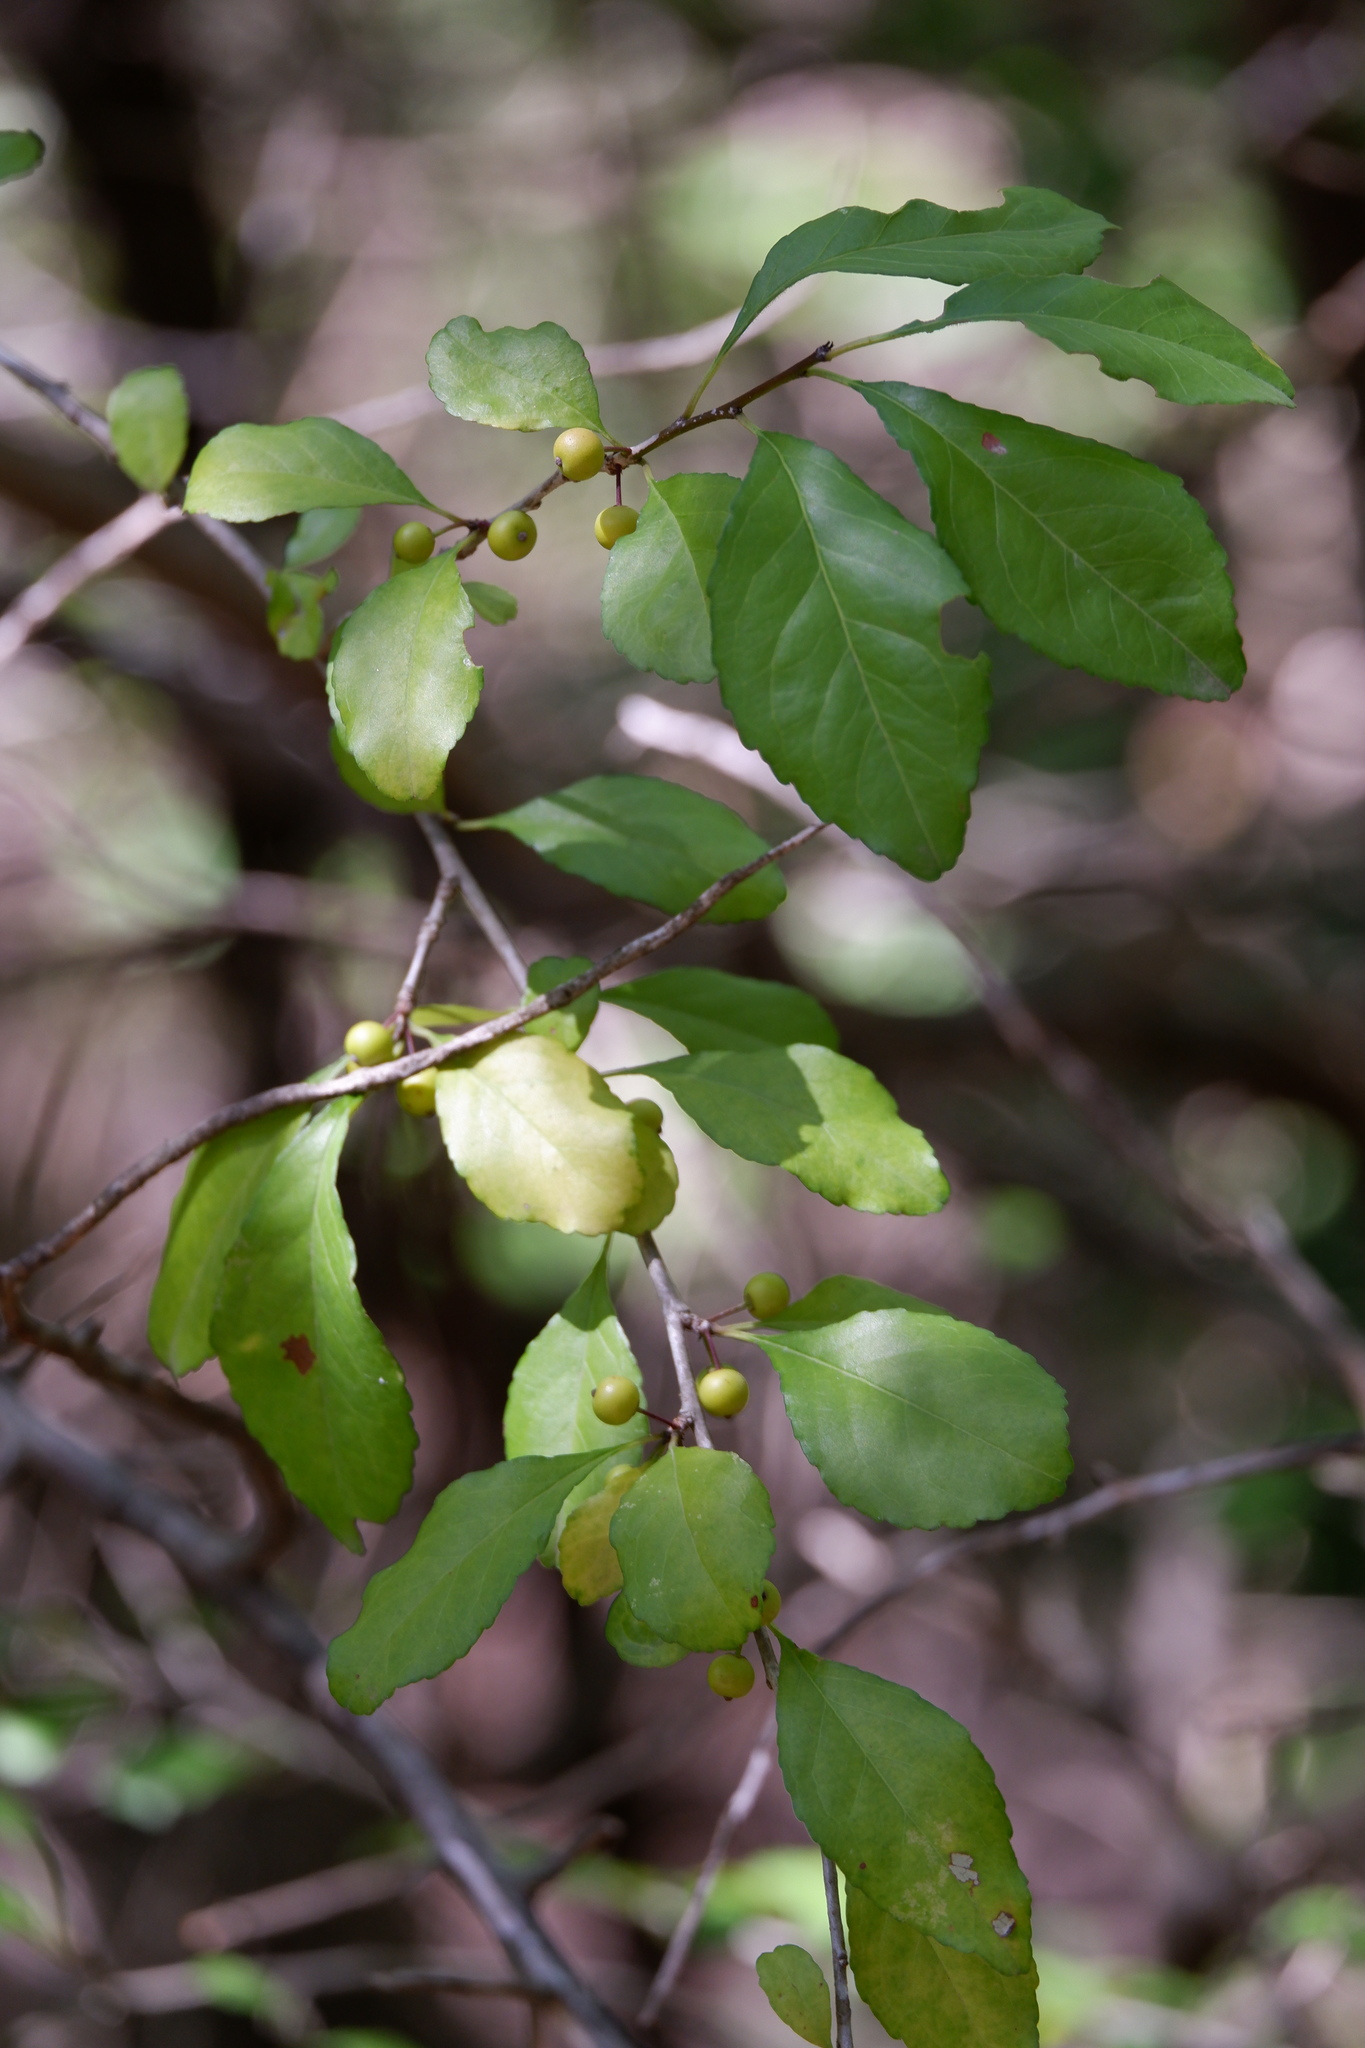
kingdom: Plantae
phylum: Tracheophyta
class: Magnoliopsida
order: Aquifoliales
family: Aquifoliaceae
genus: Ilex
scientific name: Ilex decidua
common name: Possum-haw
